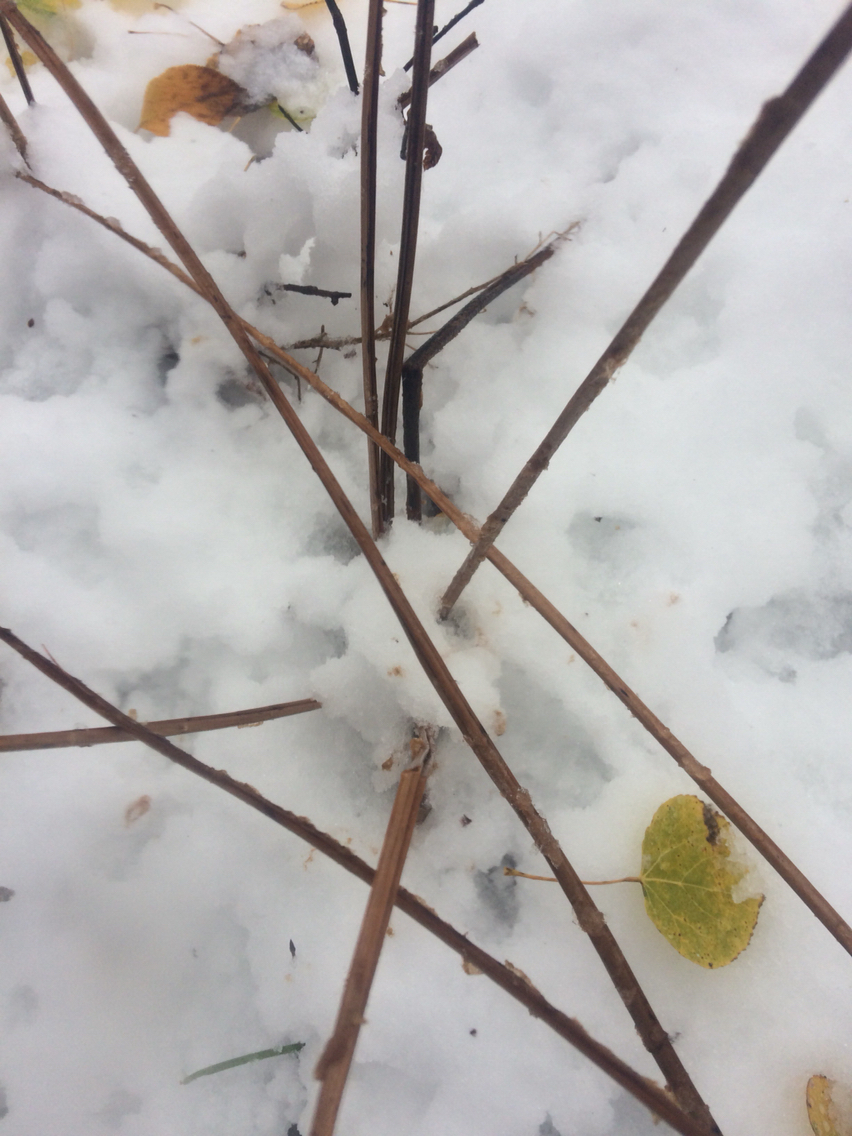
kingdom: Plantae
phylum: Tracheophyta
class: Polypodiopsida
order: Polypodiales
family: Onocleaceae
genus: Matteuccia
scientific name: Matteuccia struthiopteris
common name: Ostrich fern
